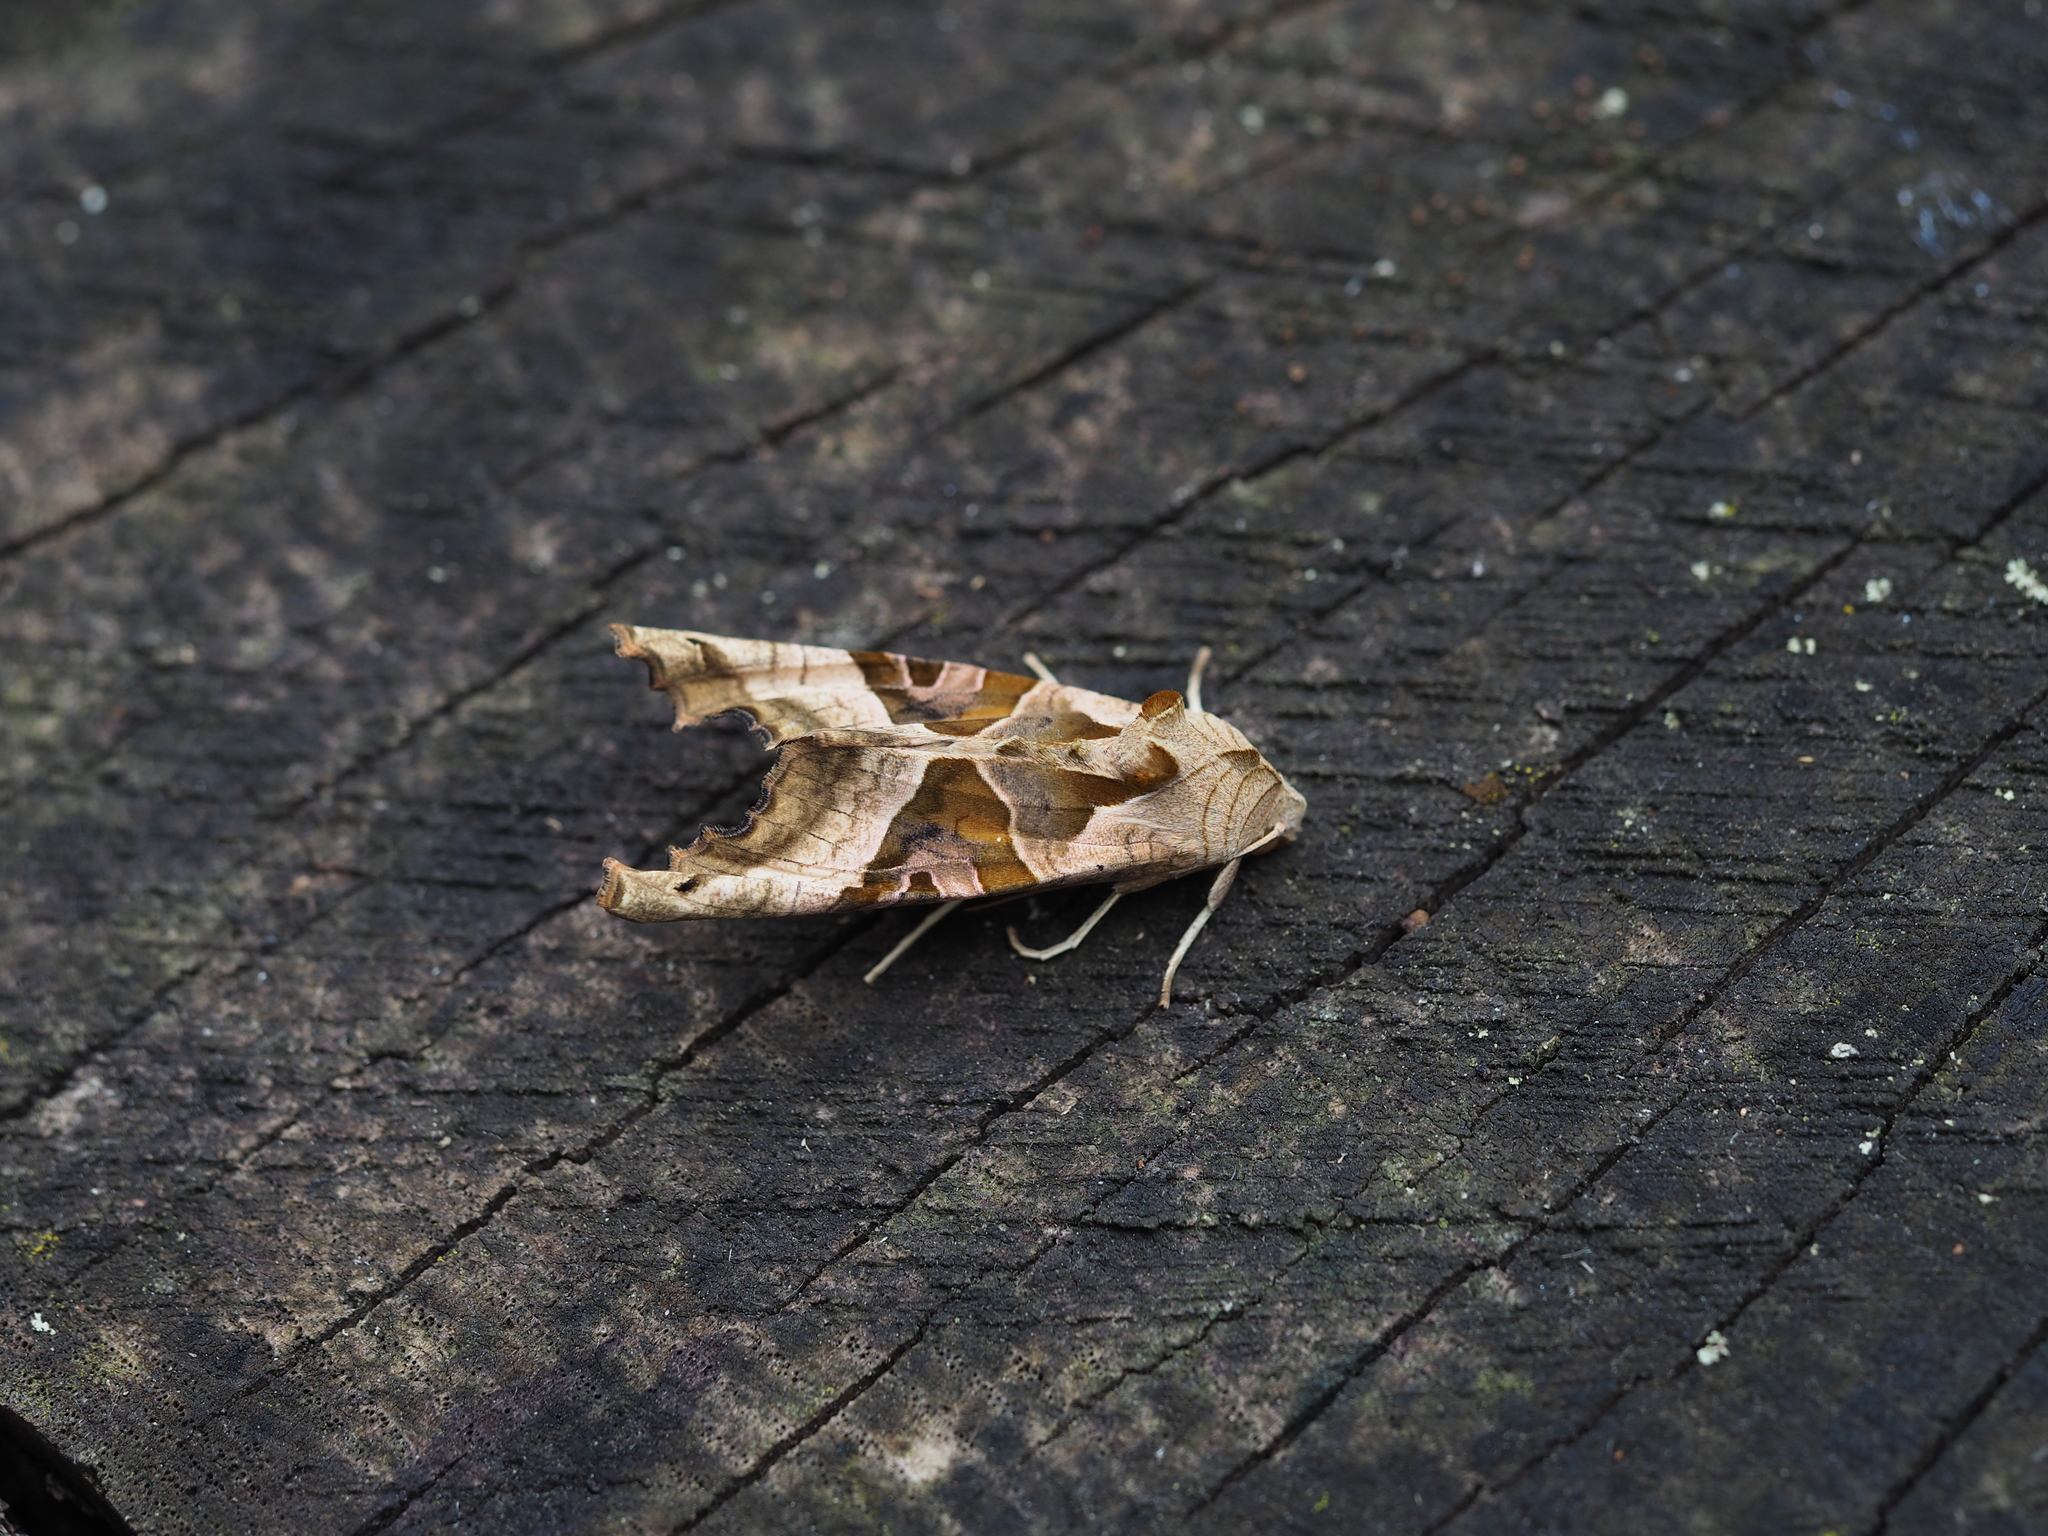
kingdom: Animalia
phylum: Arthropoda
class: Insecta
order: Lepidoptera
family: Noctuidae
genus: Phlogophora
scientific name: Phlogophora meticulosa
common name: Angle shades
